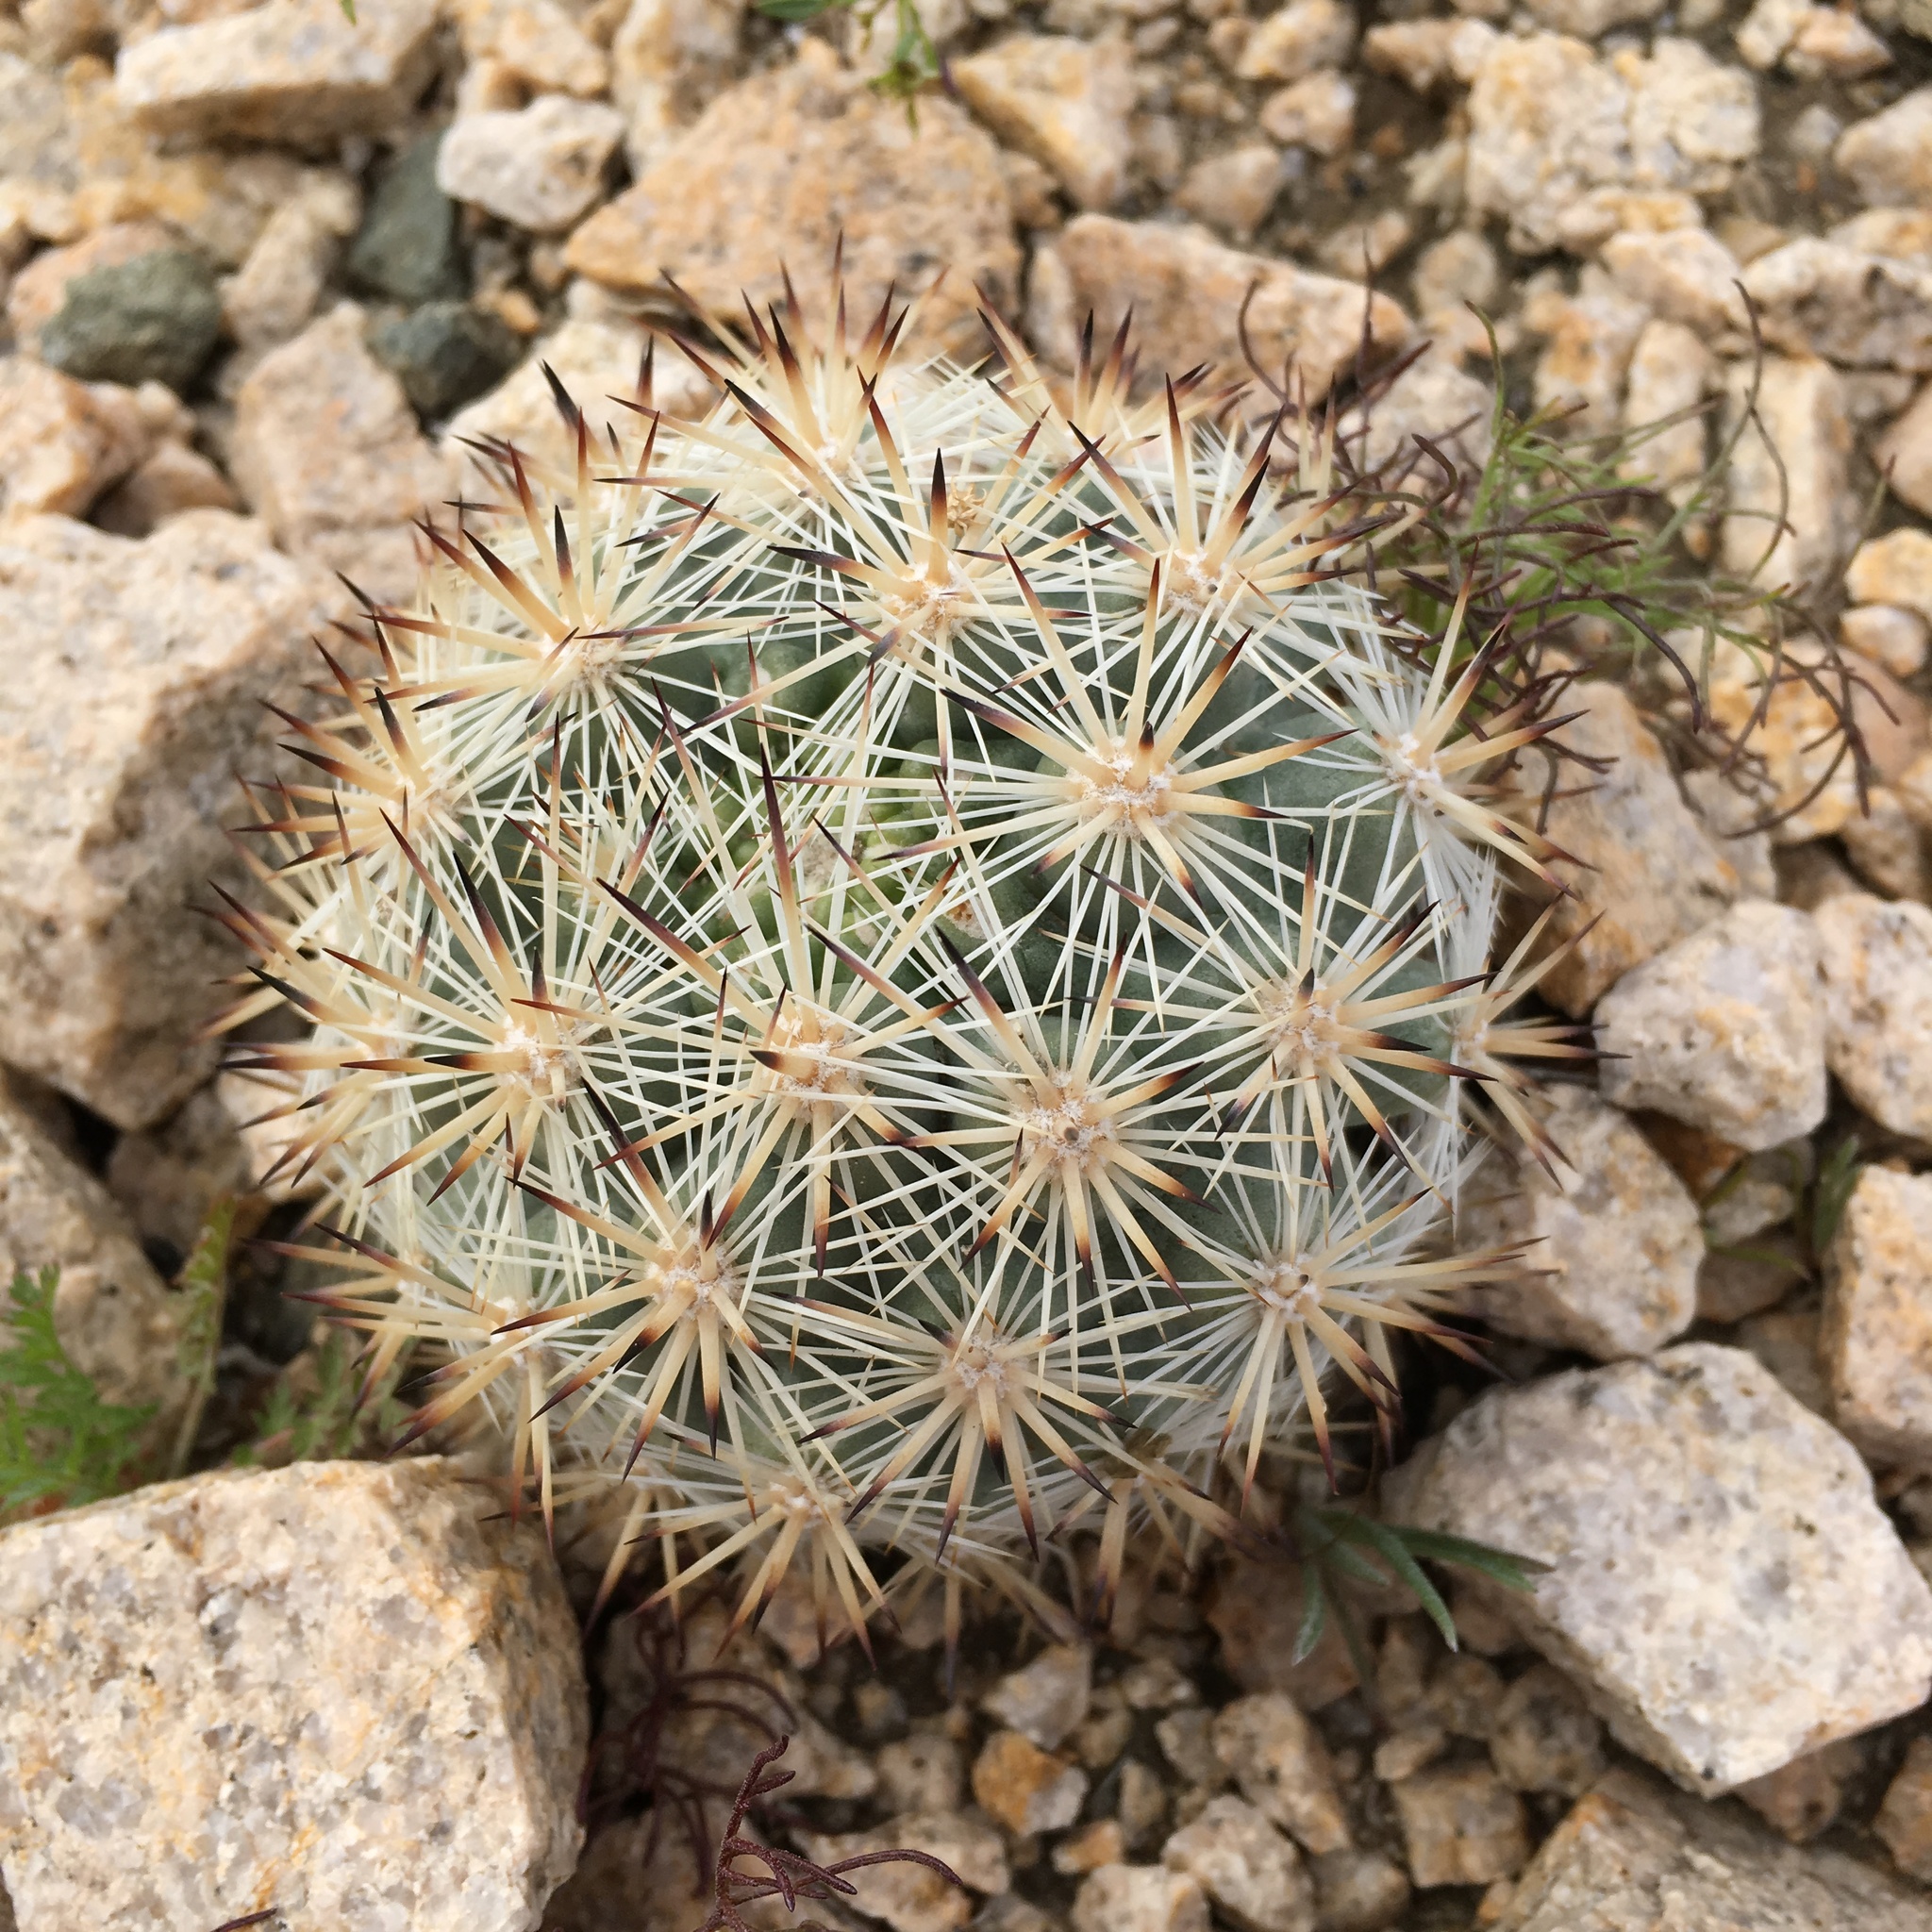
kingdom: Plantae
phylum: Tracheophyta
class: Magnoliopsida
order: Caryophyllales
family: Cactaceae
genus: Pelecyphora
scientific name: Pelecyphora alversonii
